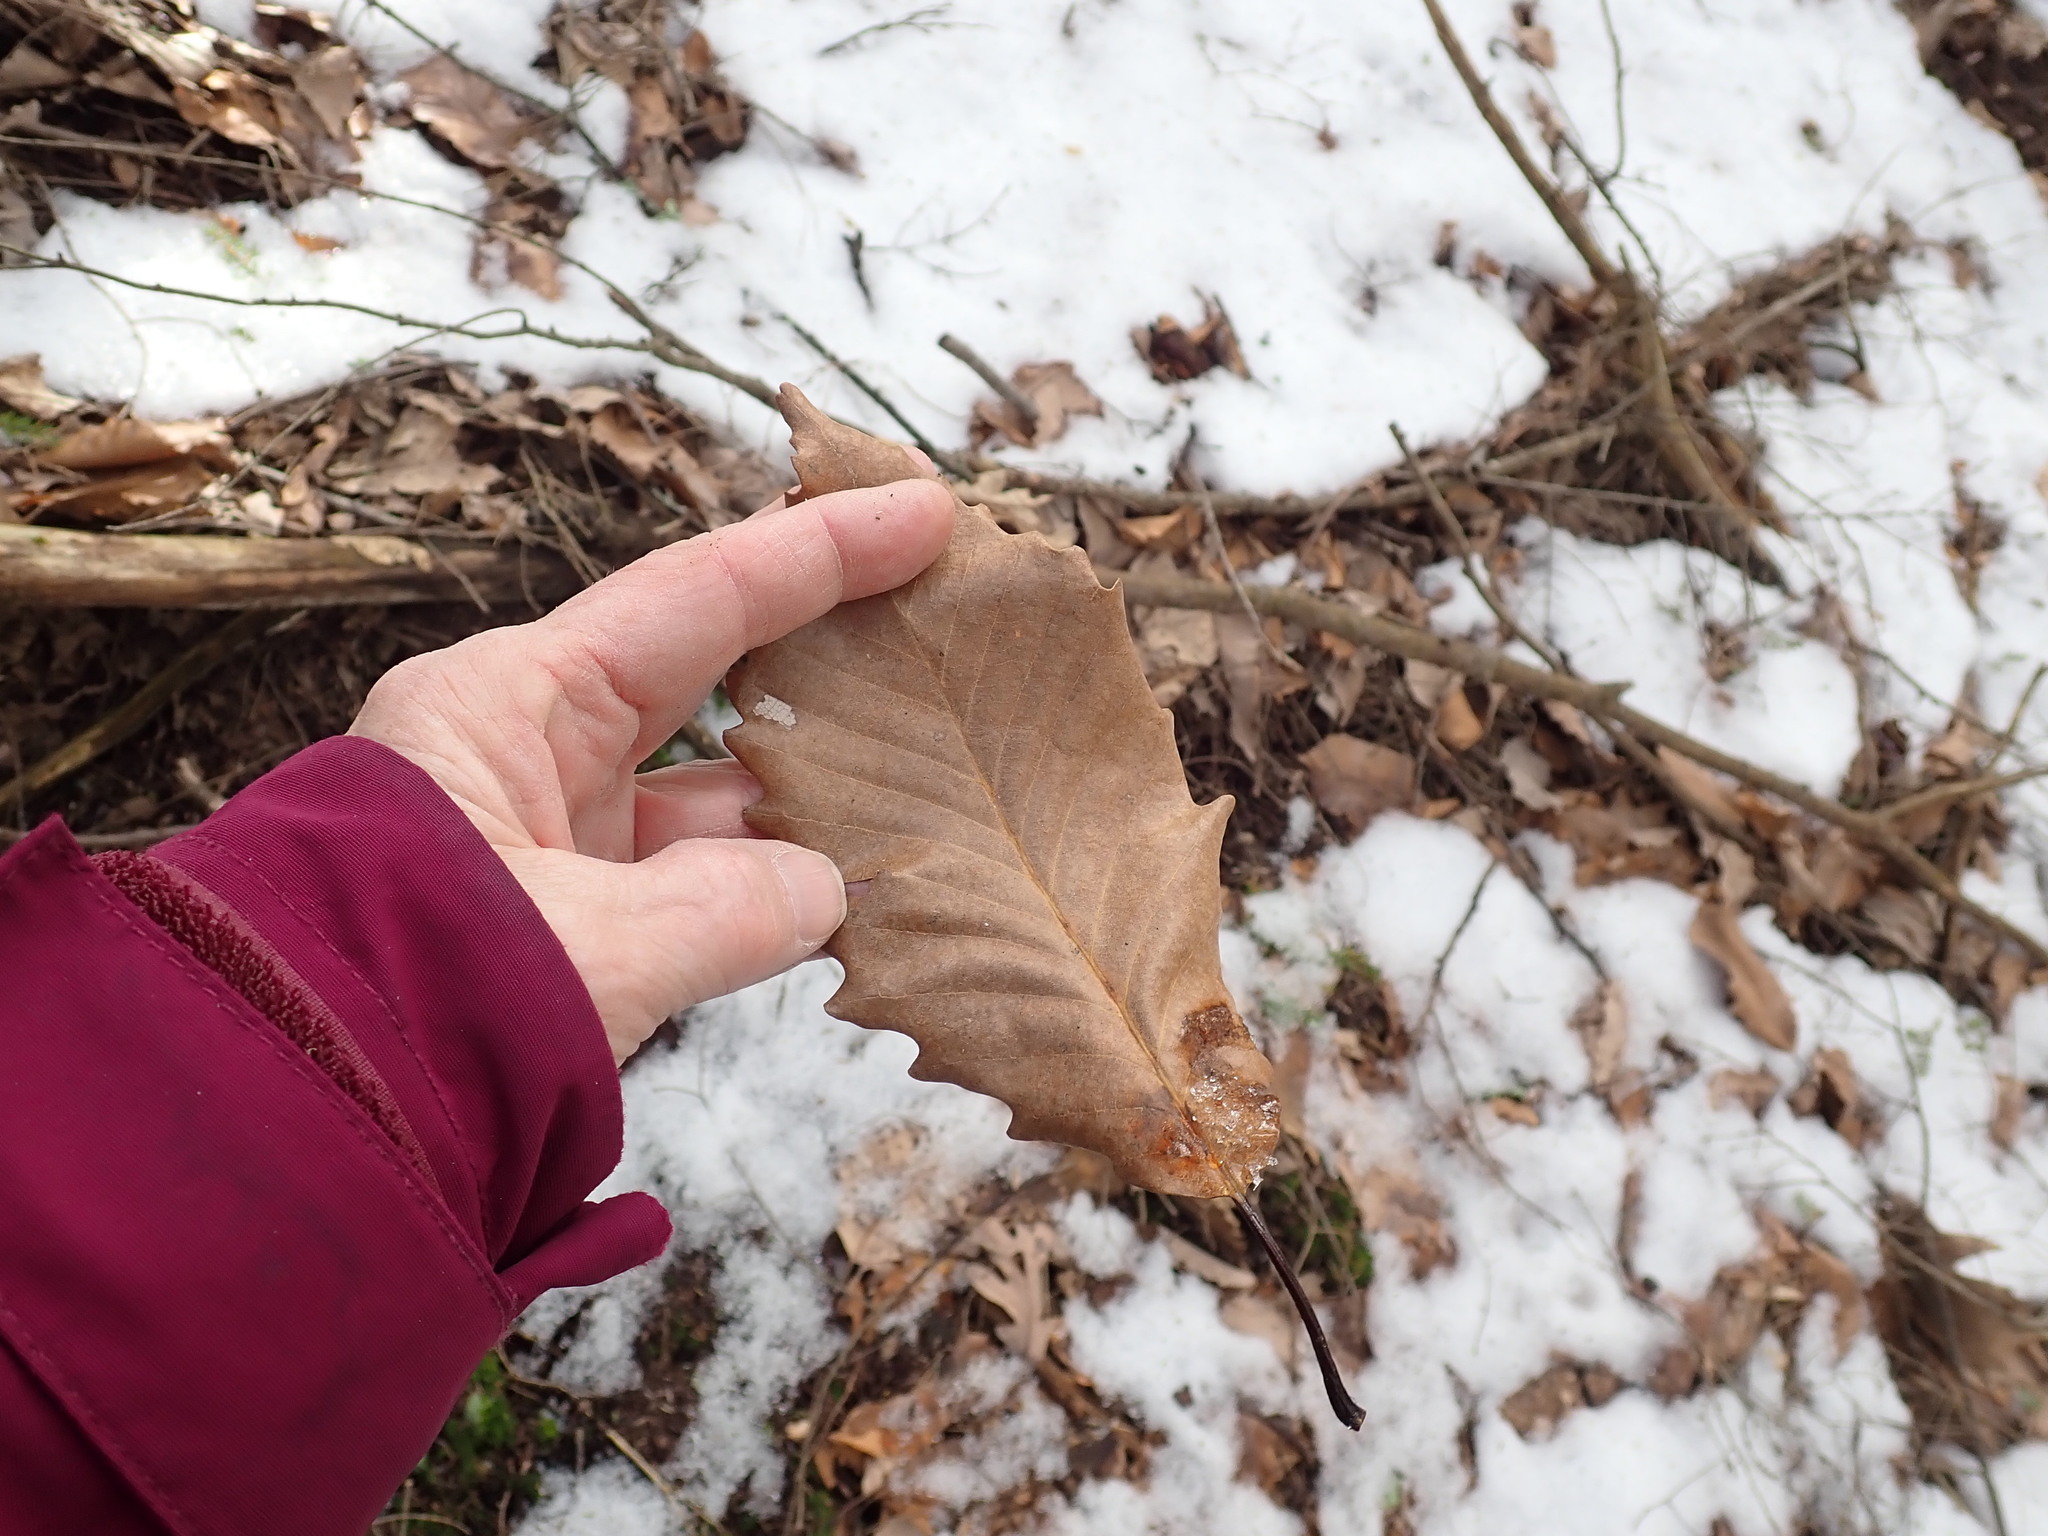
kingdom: Plantae
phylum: Tracheophyta
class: Magnoliopsida
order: Fagales
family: Fagaceae
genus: Quercus
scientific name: Quercus montana
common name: Chestnut oak
